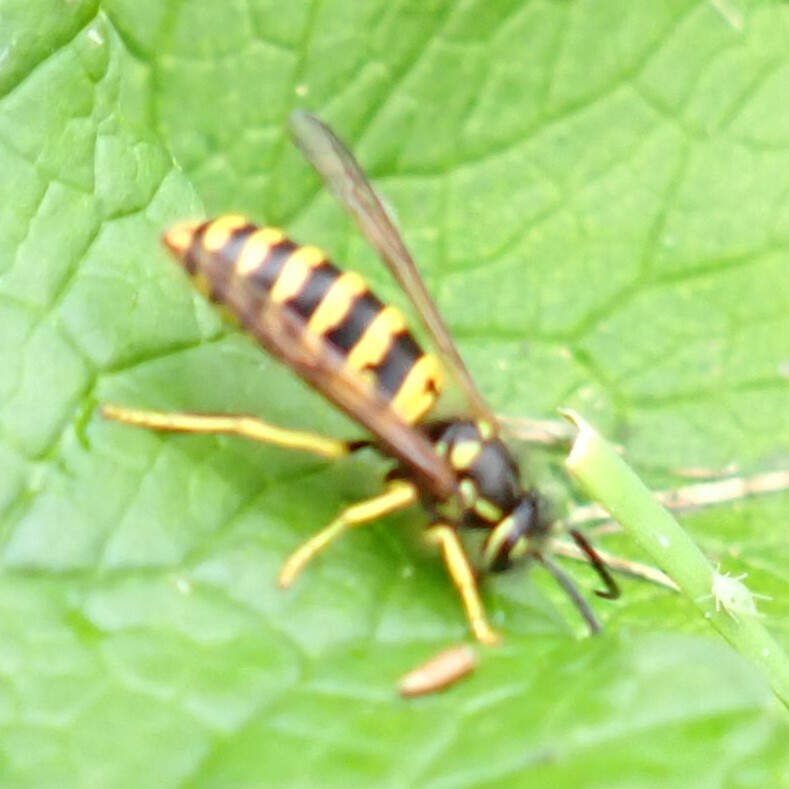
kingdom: Animalia
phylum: Arthropoda
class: Insecta
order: Hymenoptera
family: Vespidae
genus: Vespula
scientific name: Vespula maculifrons
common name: Eastern yellowjacket
